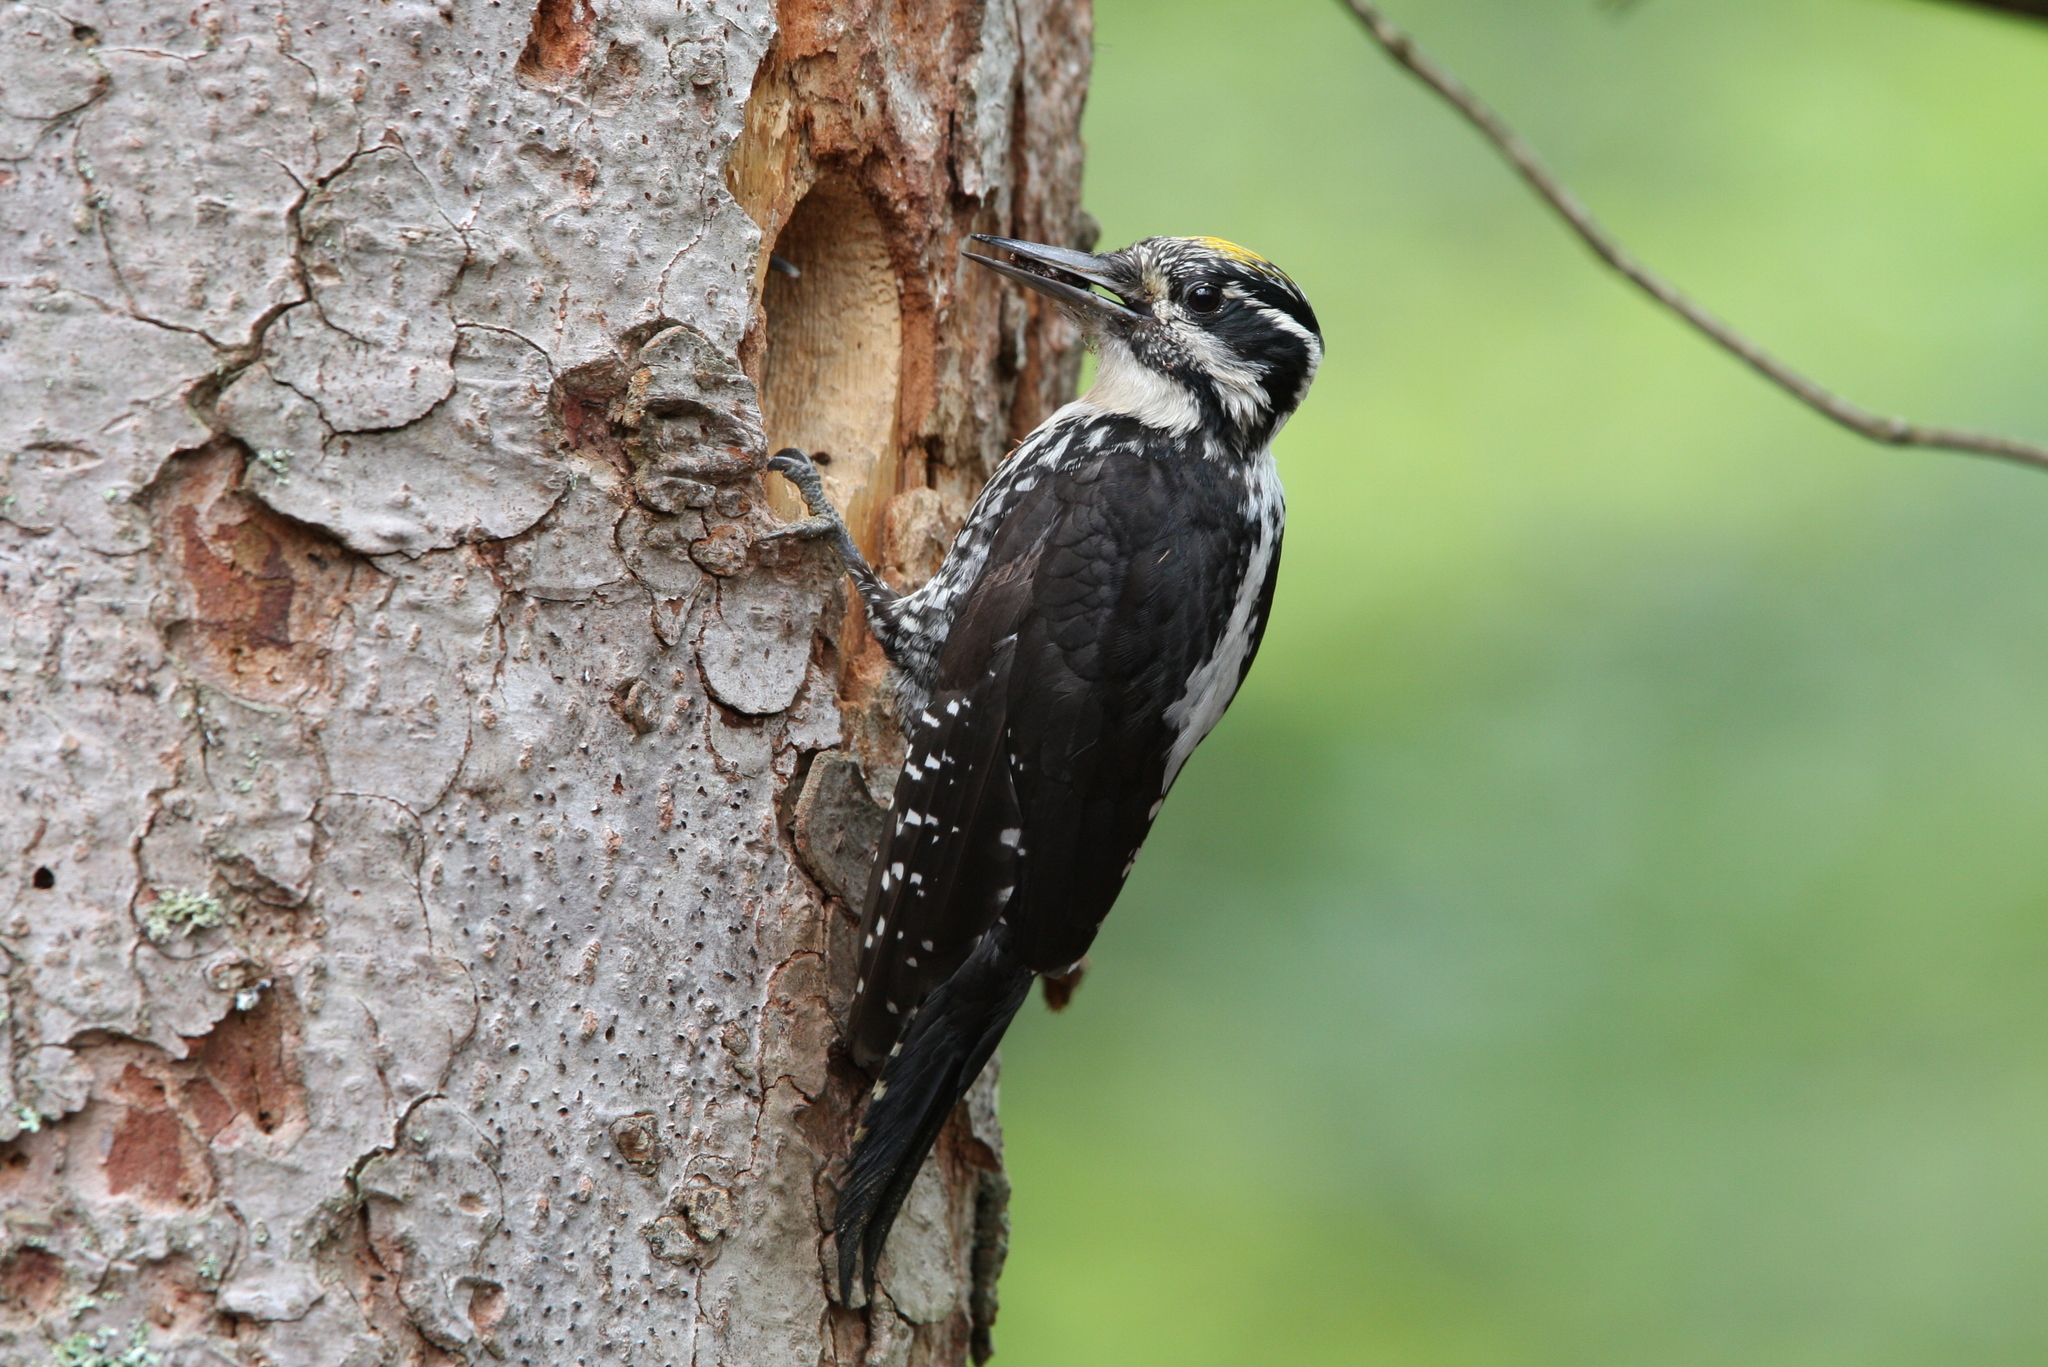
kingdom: Animalia
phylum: Chordata
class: Aves
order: Piciformes
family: Picidae
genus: Picoides
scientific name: Picoides tridactylus
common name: Eurasian three-toed woodpecker
